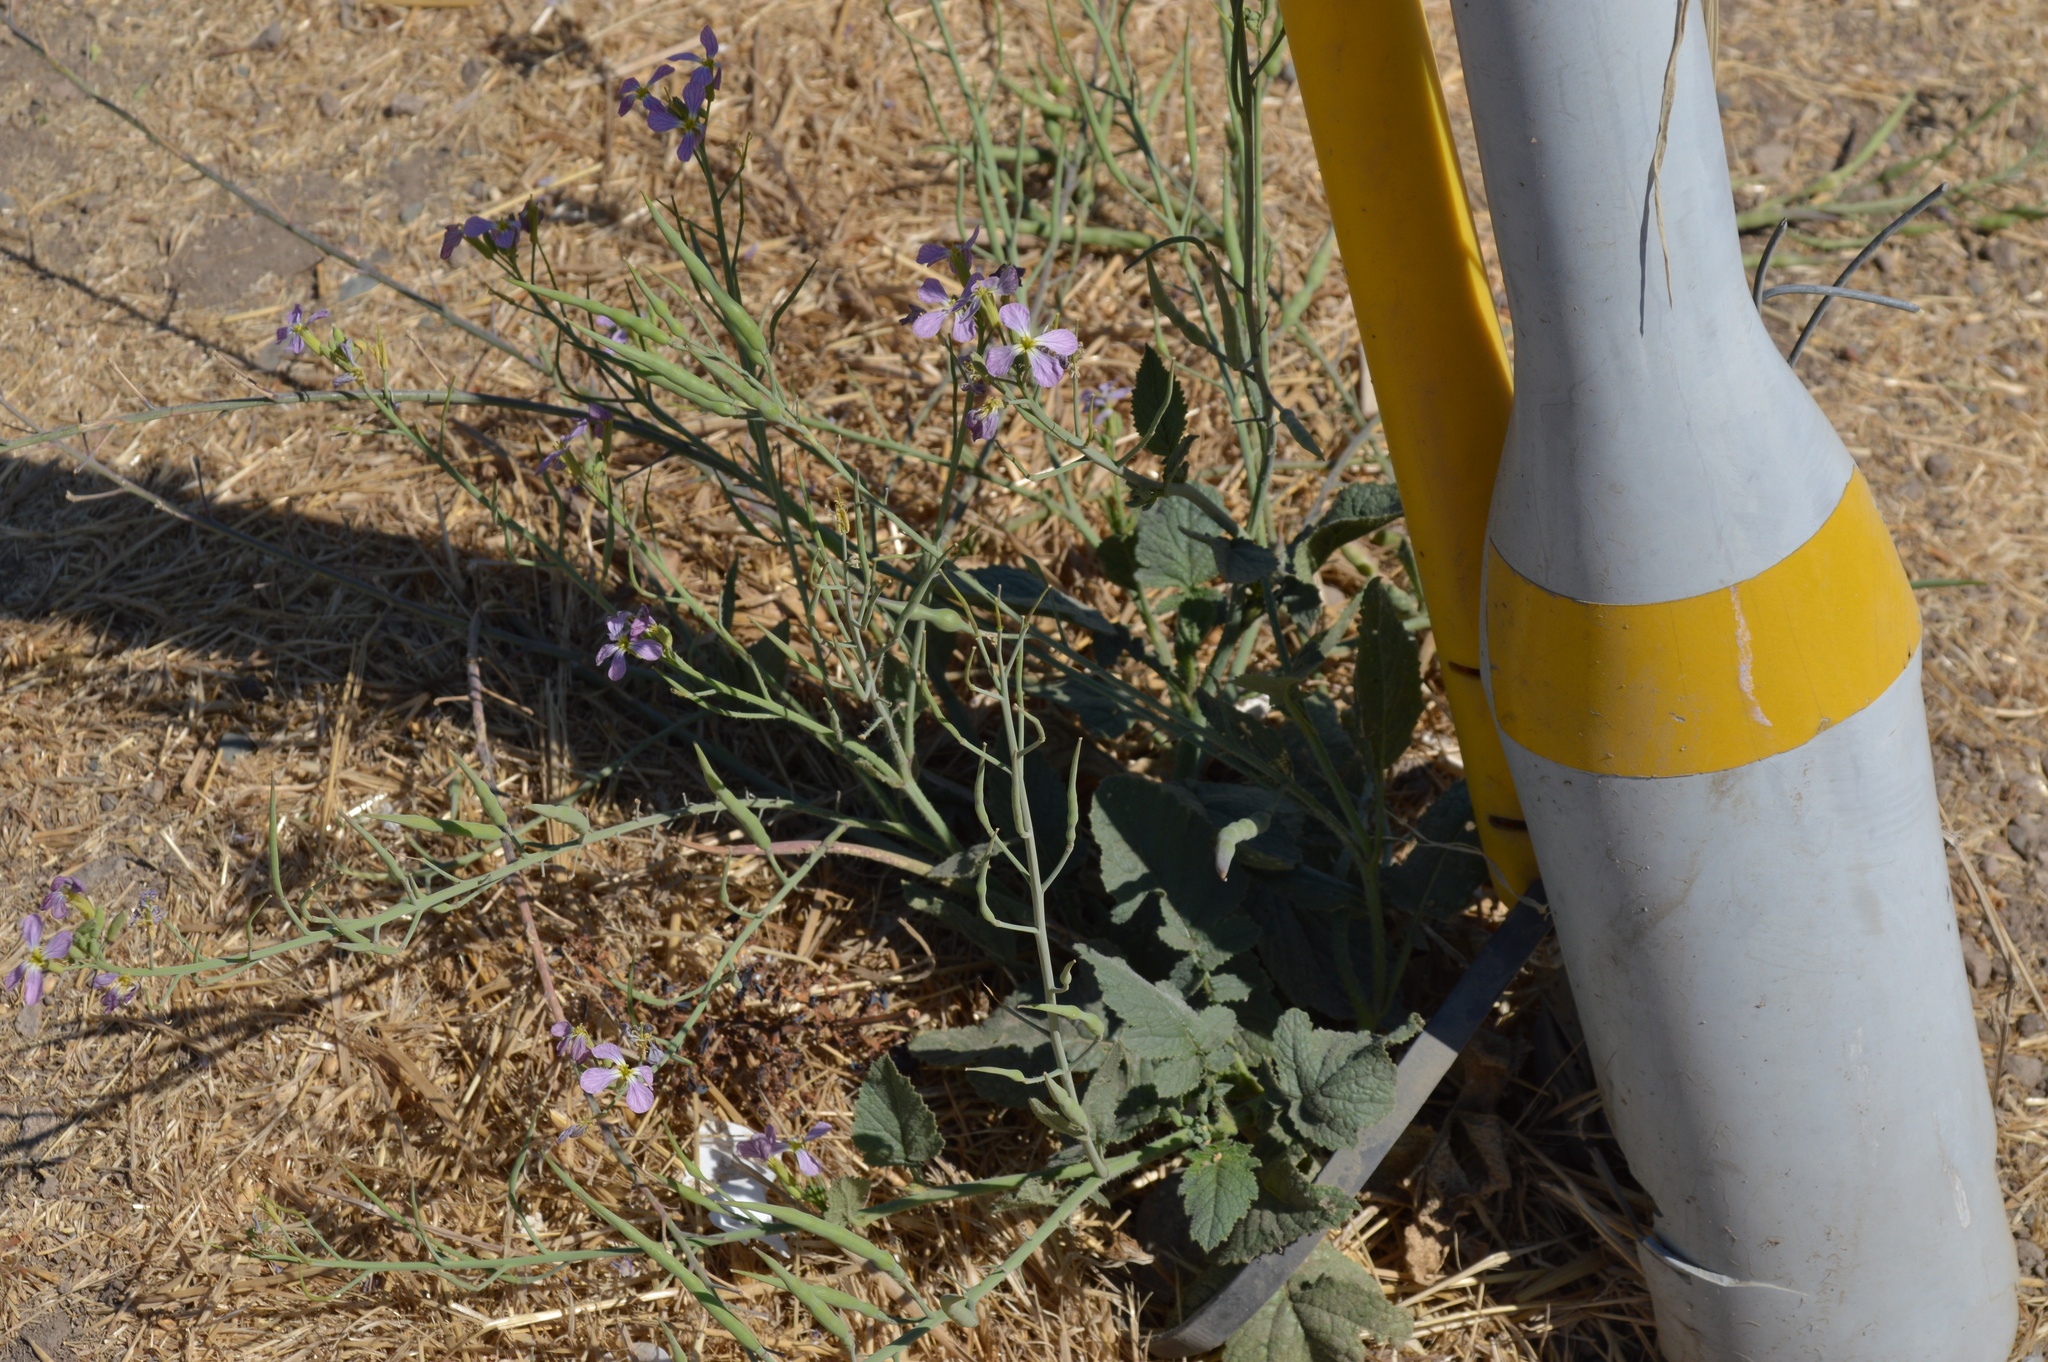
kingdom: Plantae
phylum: Tracheophyta
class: Magnoliopsida
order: Brassicales
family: Brassicaceae
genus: Raphanus
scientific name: Raphanus sativus
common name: Cultivated radish
